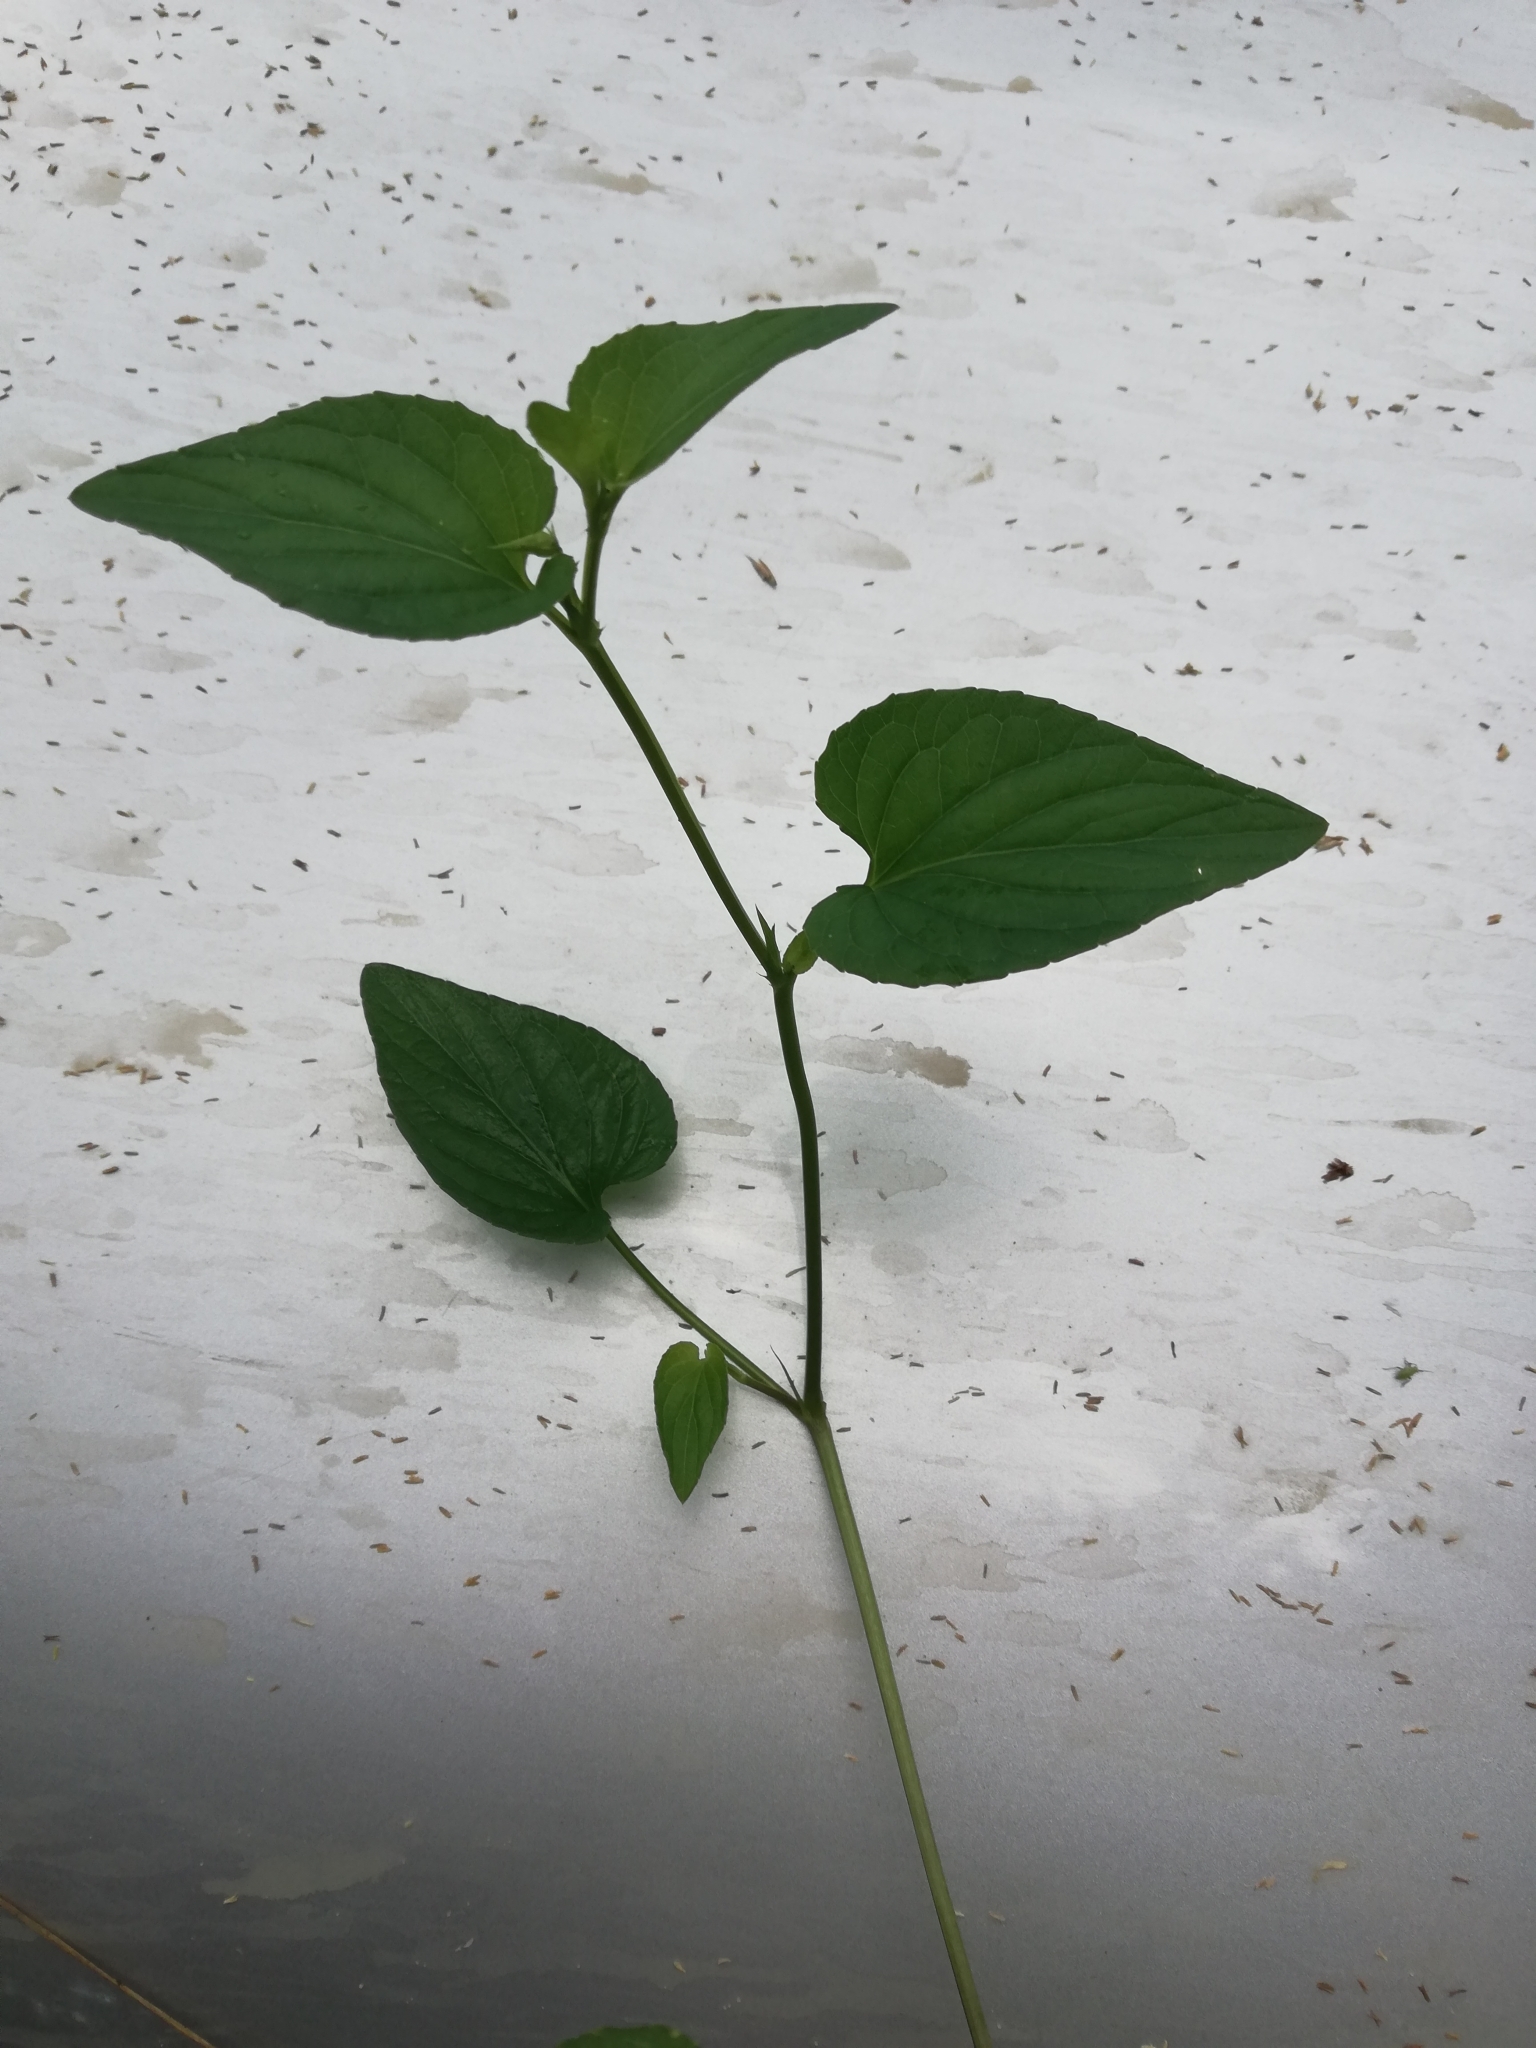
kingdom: Plantae
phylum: Tracheophyta
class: Magnoliopsida
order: Malpighiales
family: Violaceae
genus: Viola
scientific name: Viola
